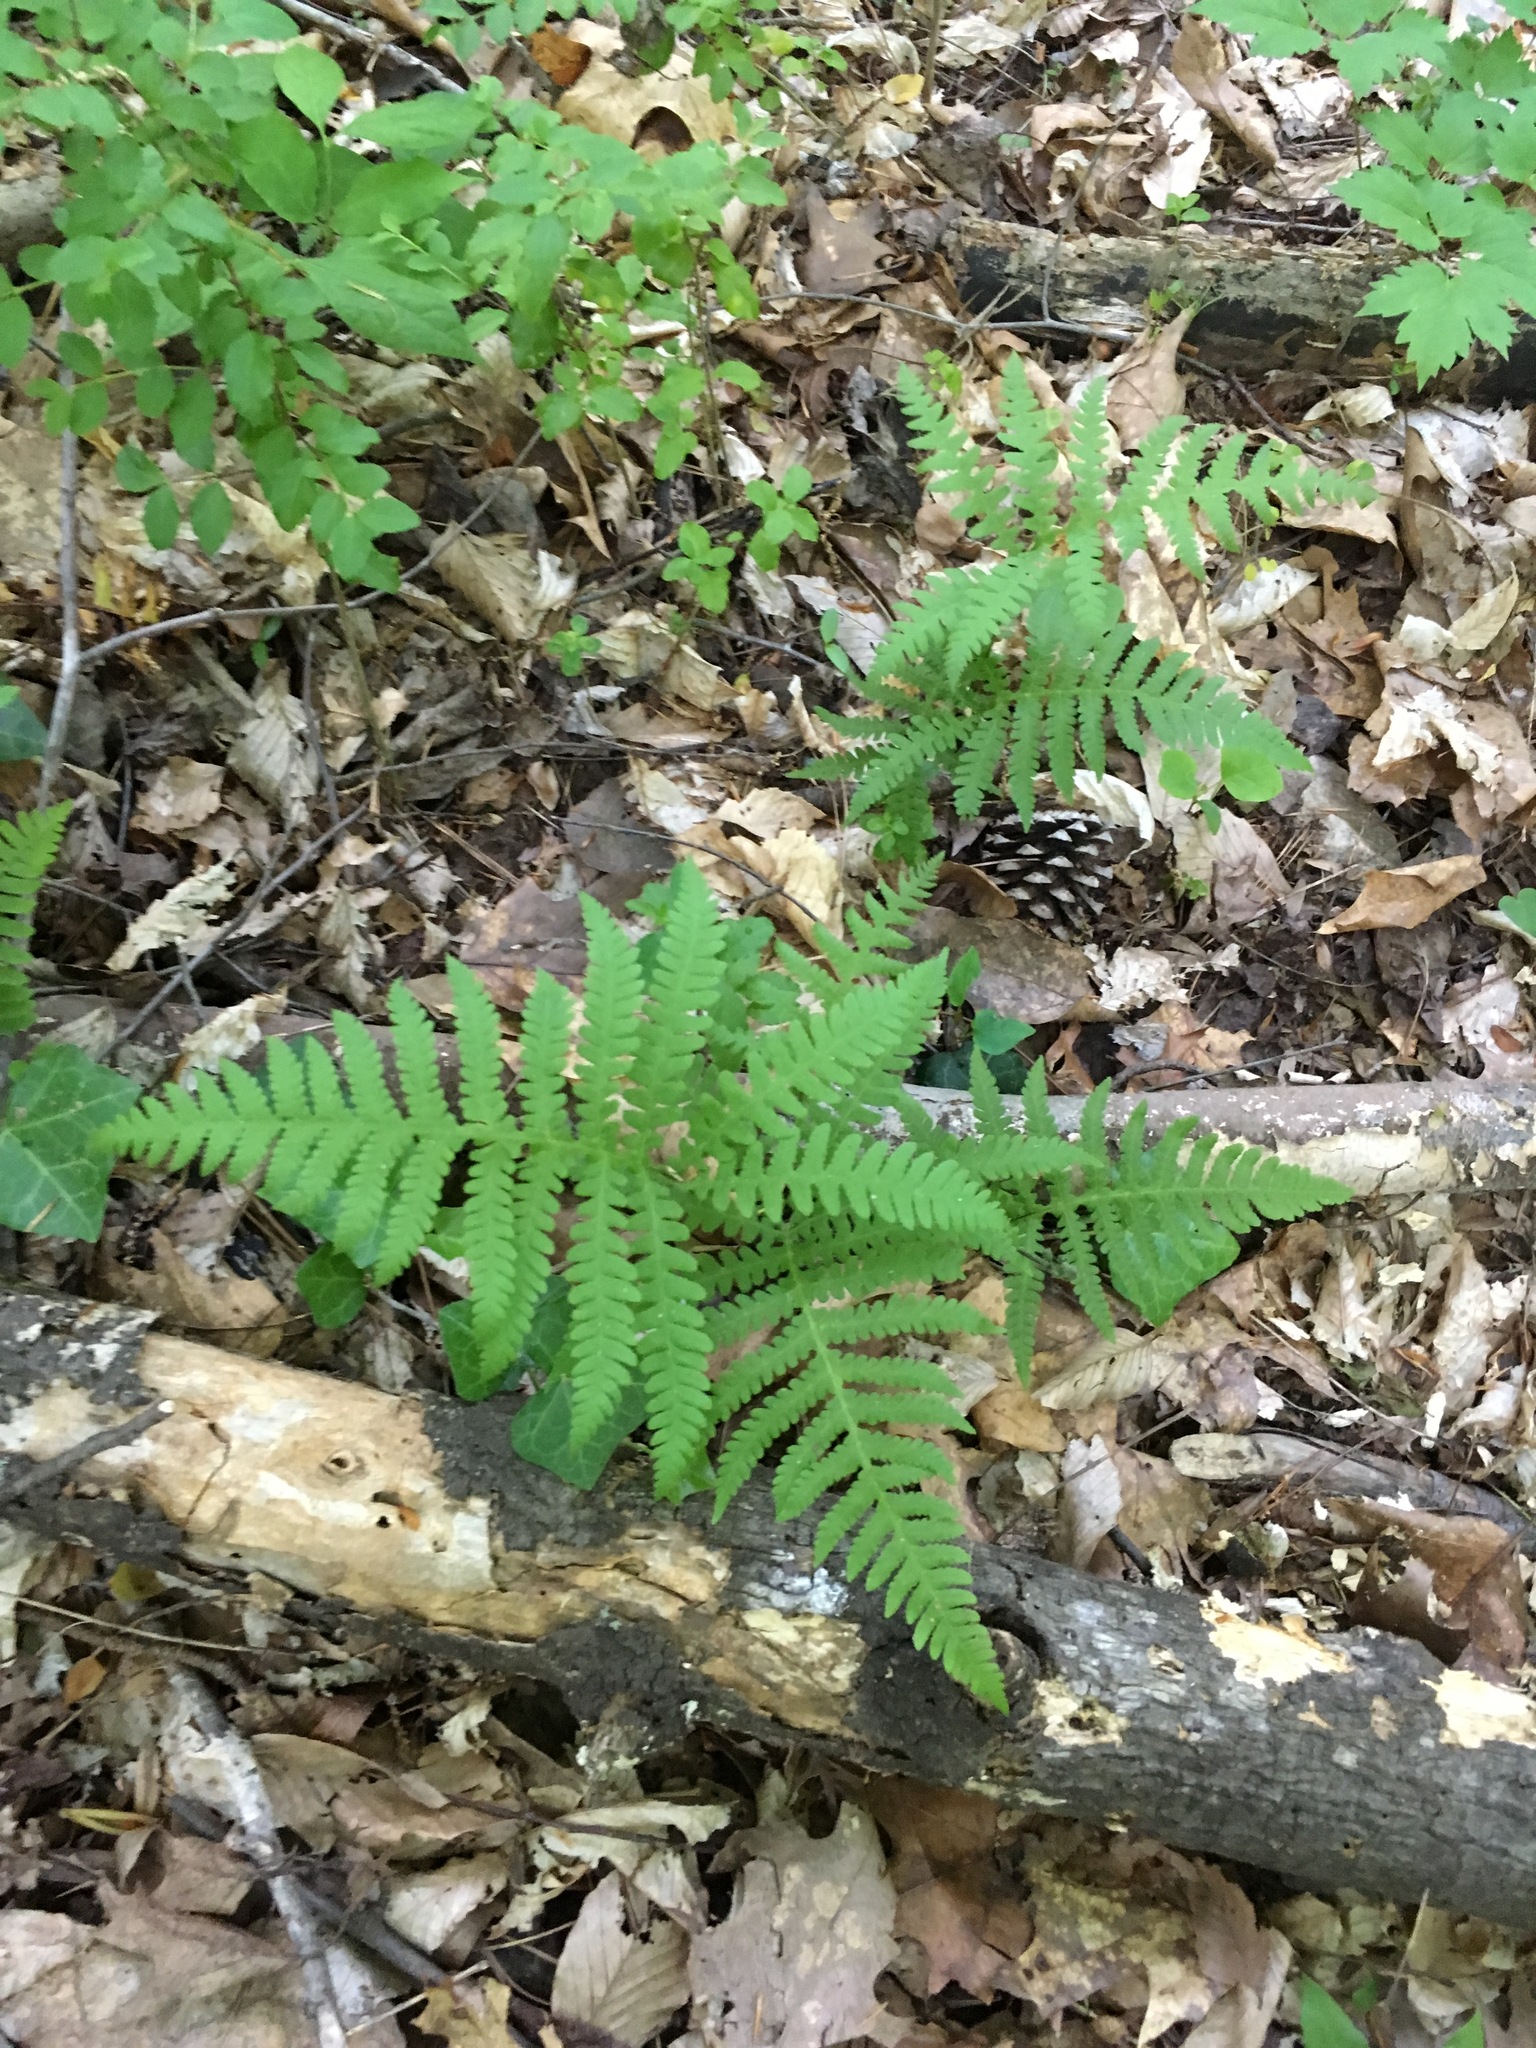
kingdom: Plantae
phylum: Tracheophyta
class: Polypodiopsida
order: Polypodiales
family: Thelypteridaceae
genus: Phegopteris
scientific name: Phegopteris hexagonoptera
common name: Broad beech fern
